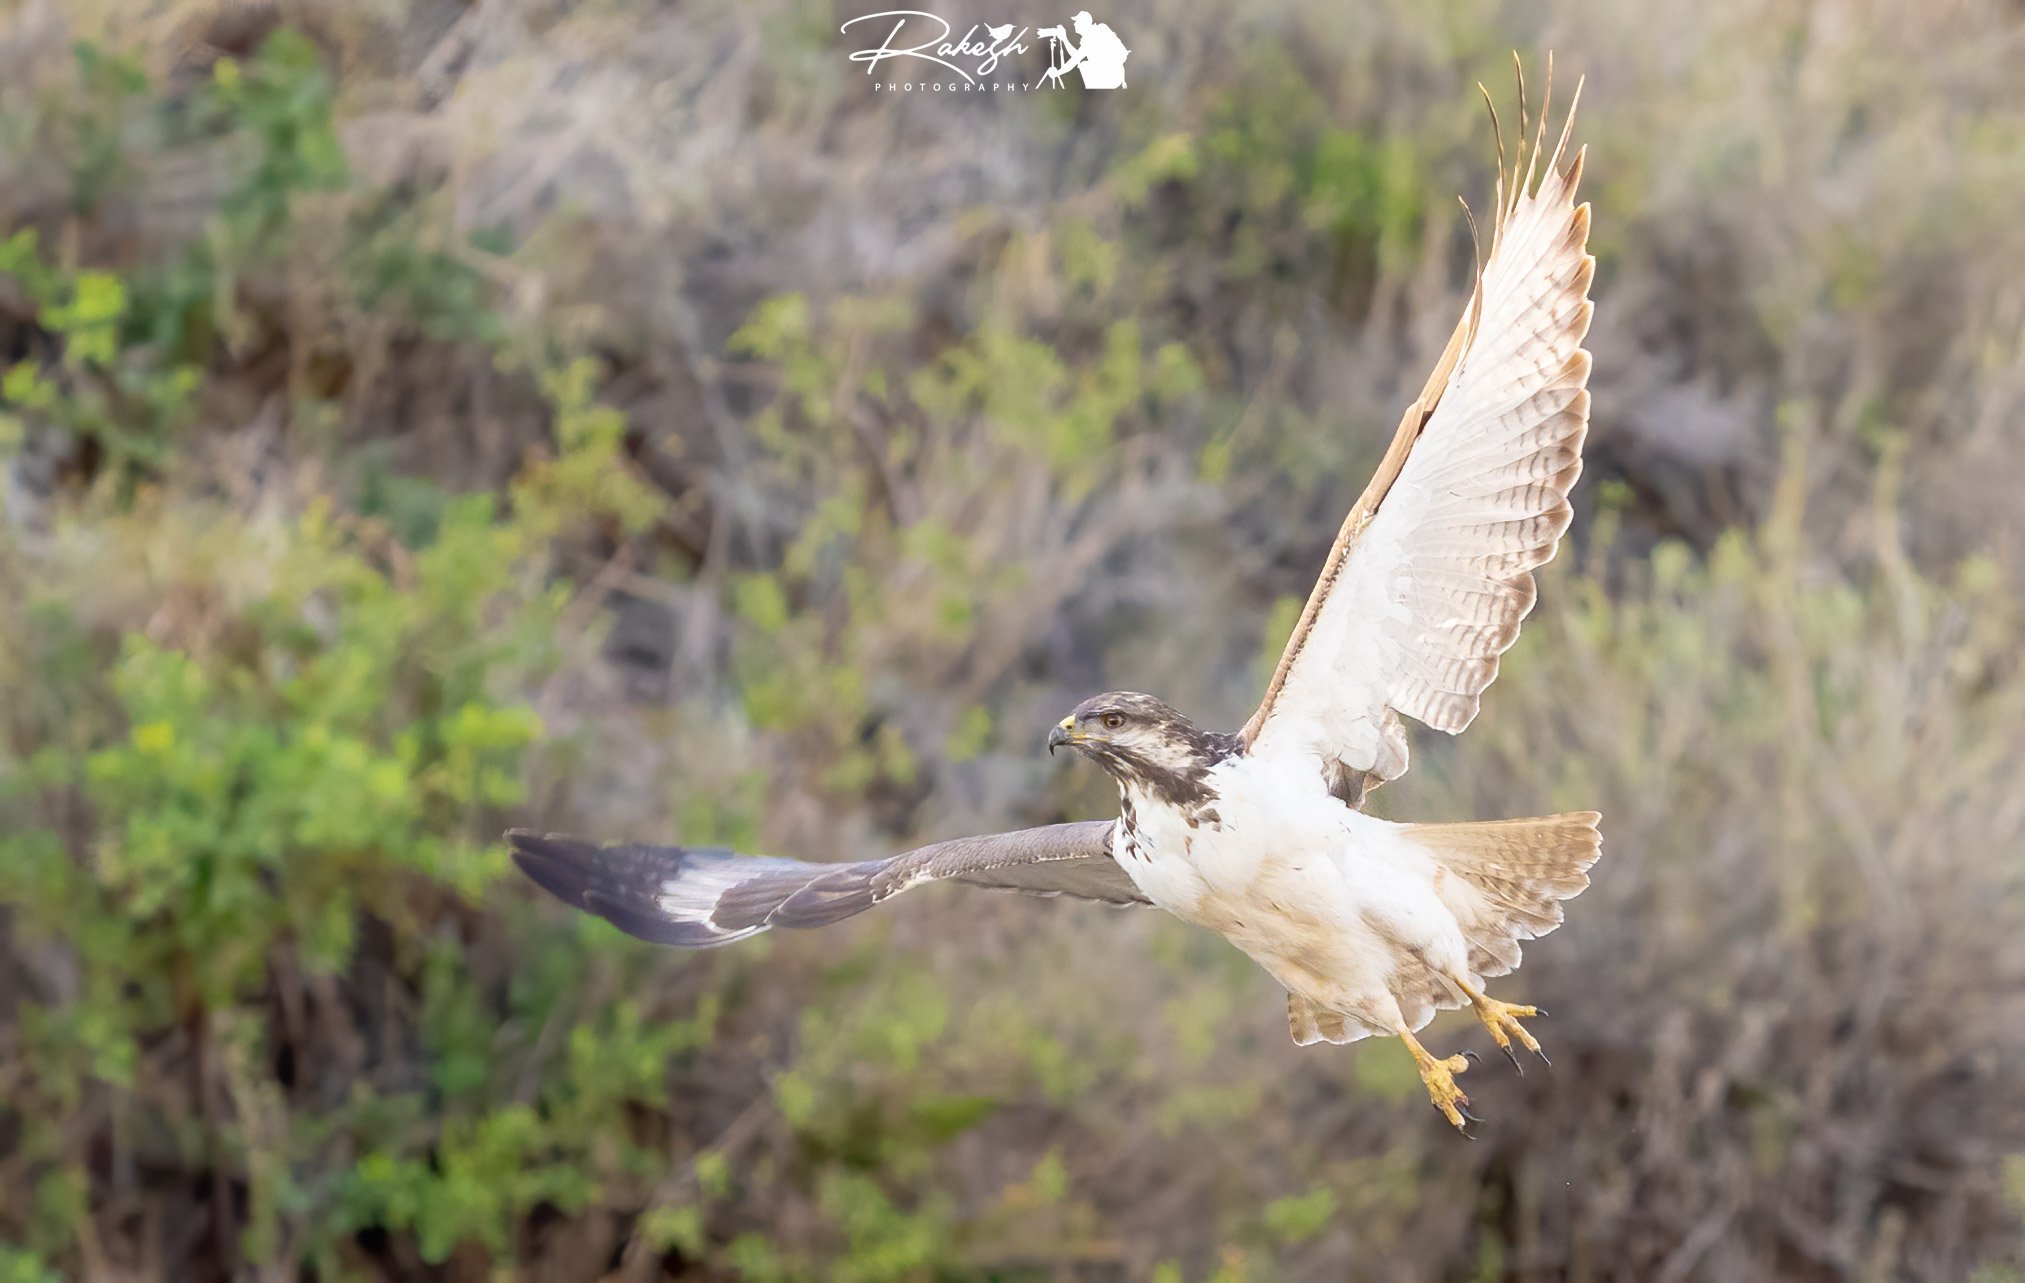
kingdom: Animalia
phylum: Chordata
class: Aves
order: Accipitriformes
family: Accipitridae
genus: Buteo
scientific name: Buteo augur
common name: Augur buzzard
